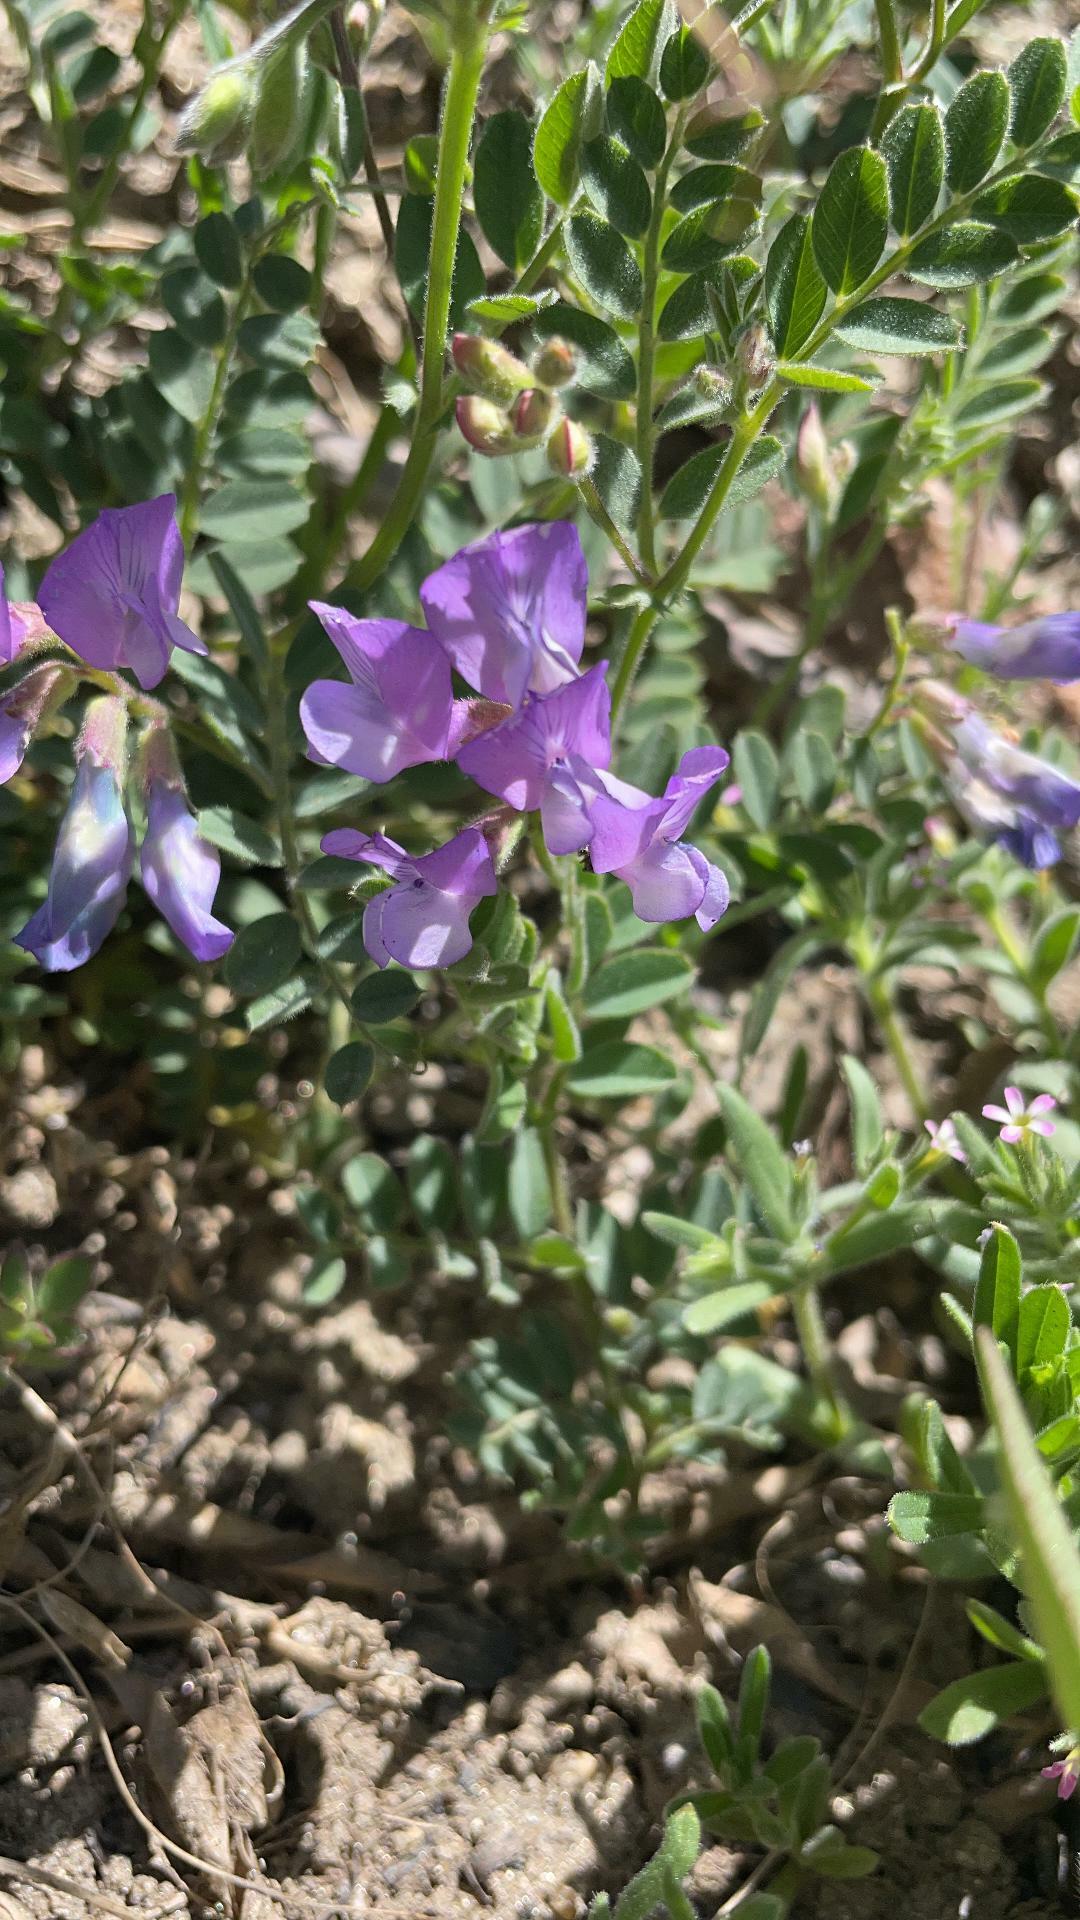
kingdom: Plantae
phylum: Tracheophyta
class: Magnoliopsida
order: Fabales
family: Fabaceae
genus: Vicia
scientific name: Vicia americana
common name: American vetch
